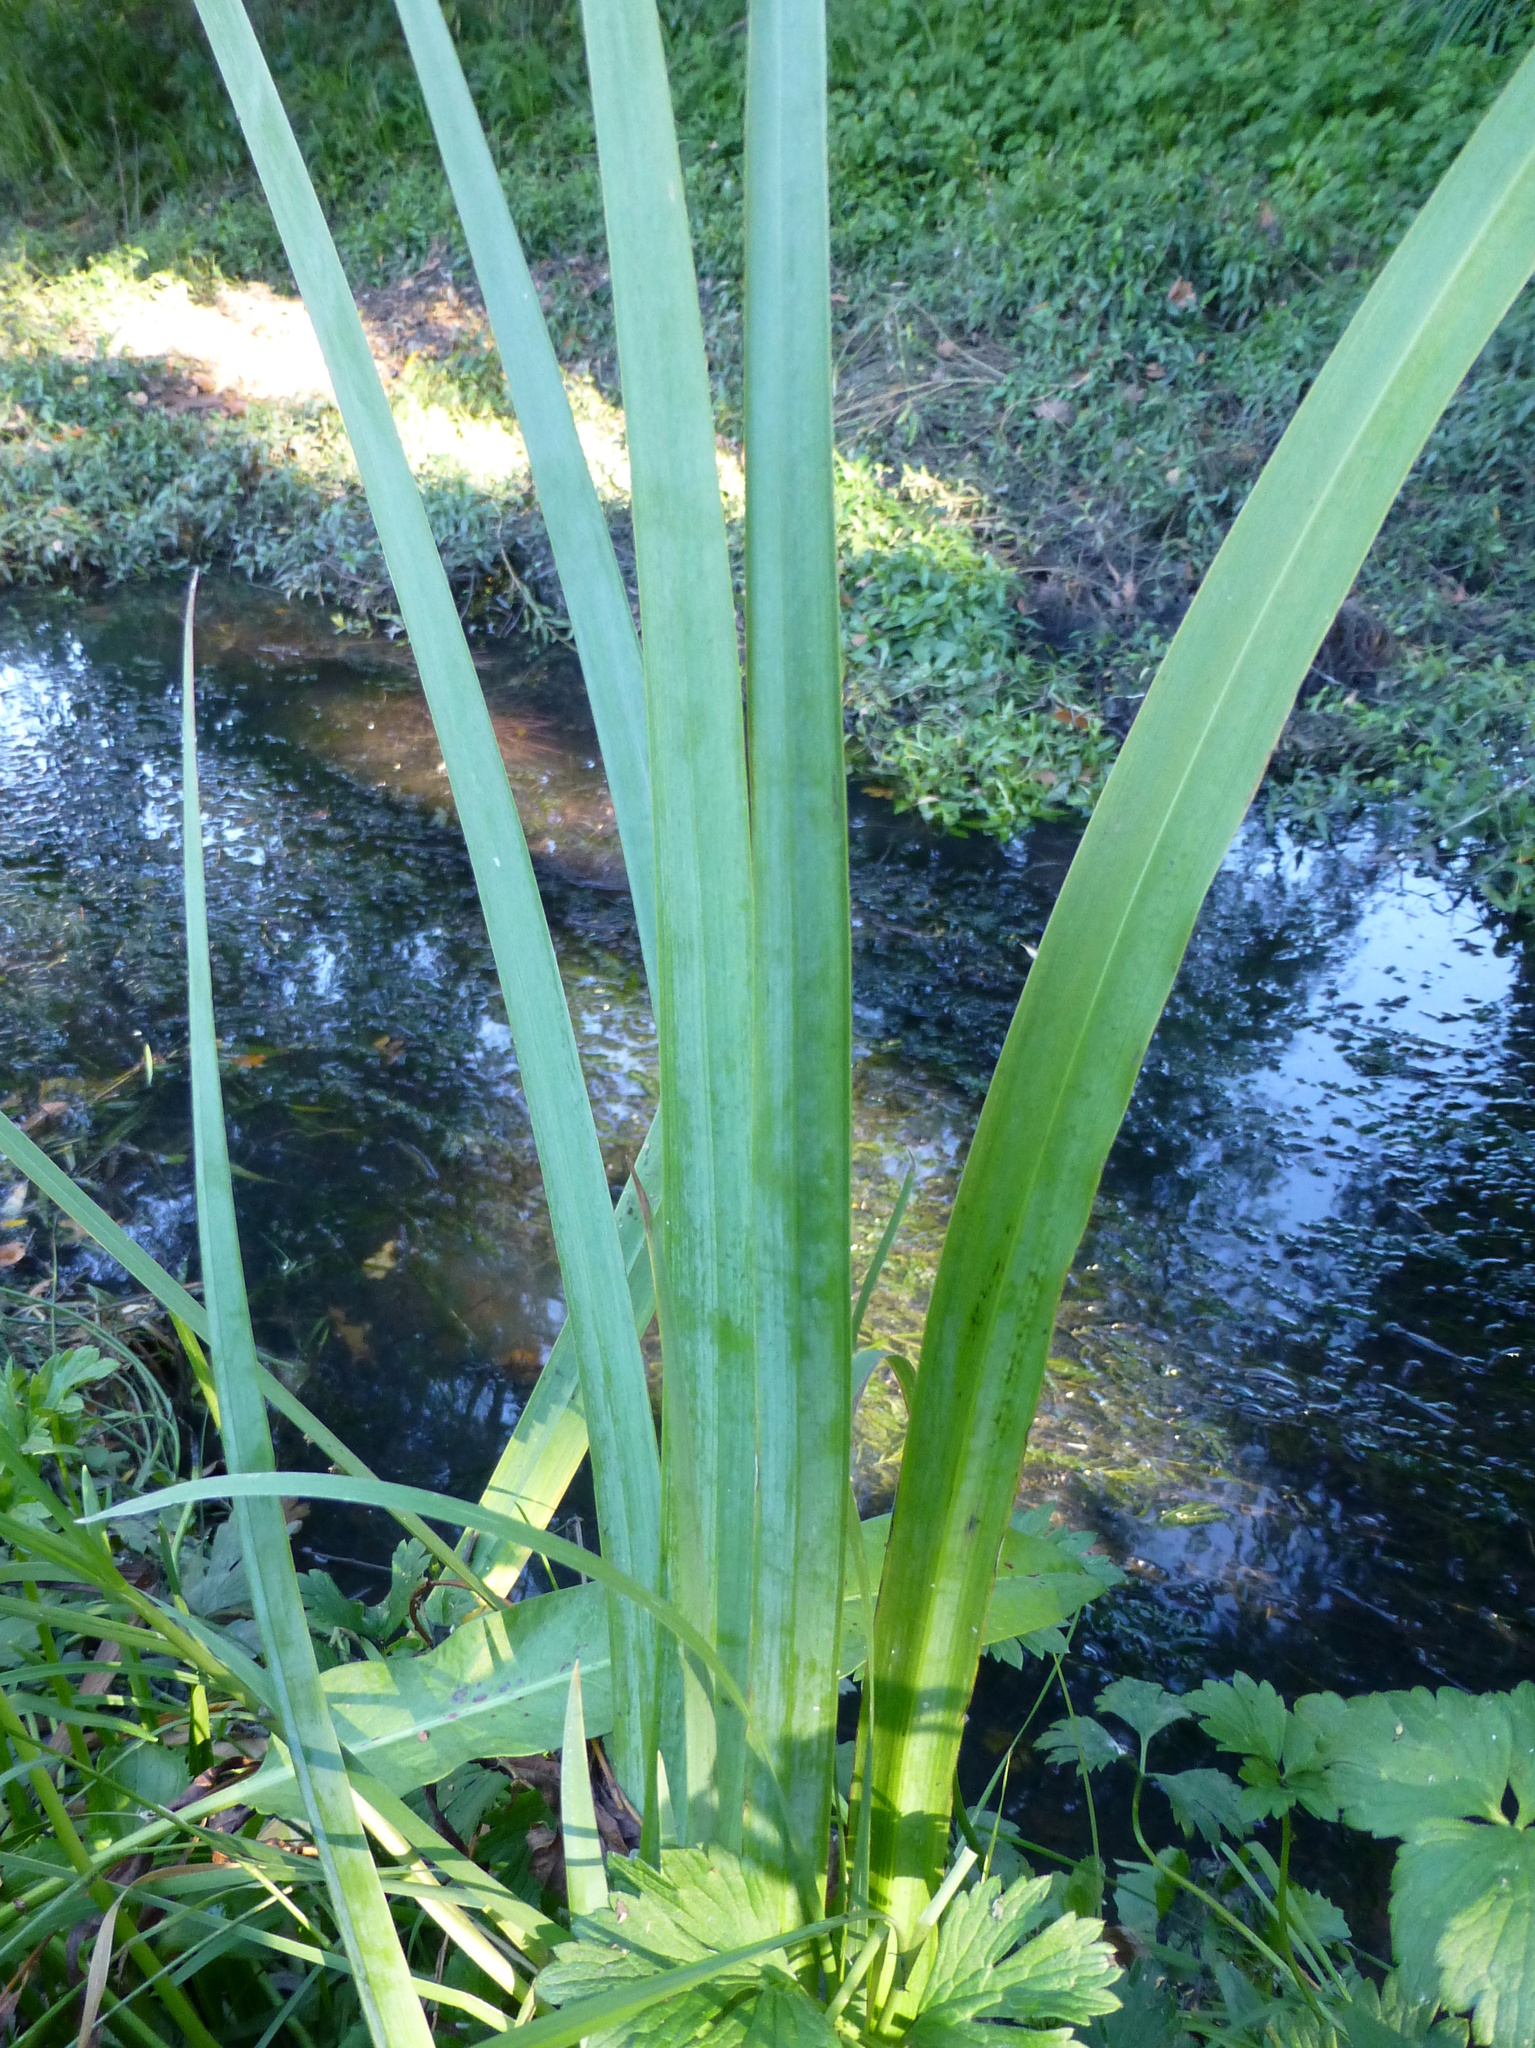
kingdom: Plantae
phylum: Tracheophyta
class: Liliopsida
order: Asparagales
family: Iridaceae
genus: Iris
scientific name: Iris pseudacorus
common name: Yellow flag
